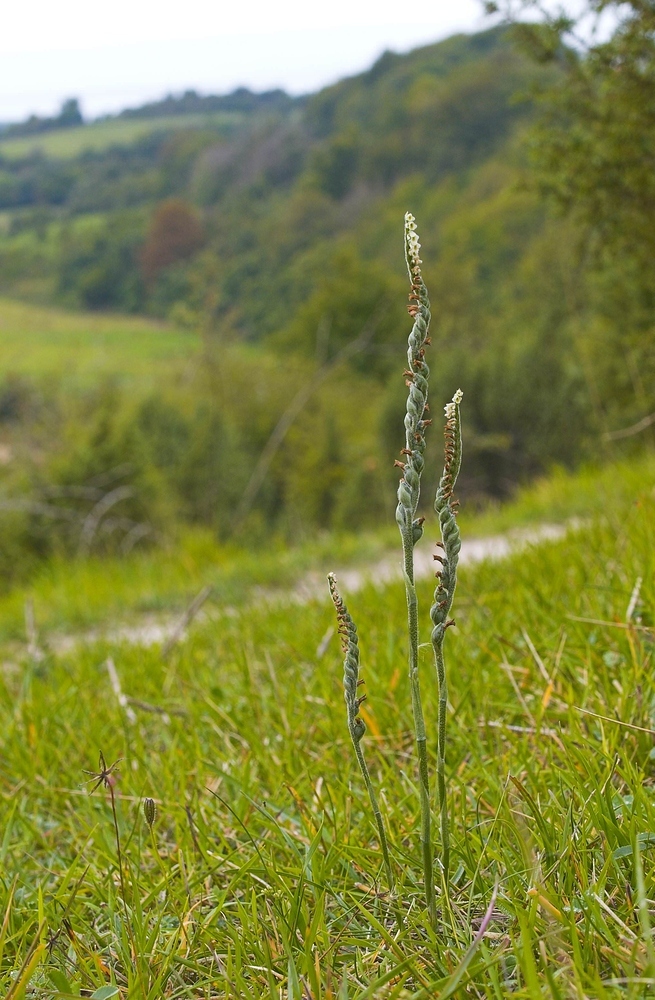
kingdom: Plantae
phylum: Tracheophyta
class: Liliopsida
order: Asparagales
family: Orchidaceae
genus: Spiranthes
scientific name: Spiranthes spiralis
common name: Autumn lady's-tresses
